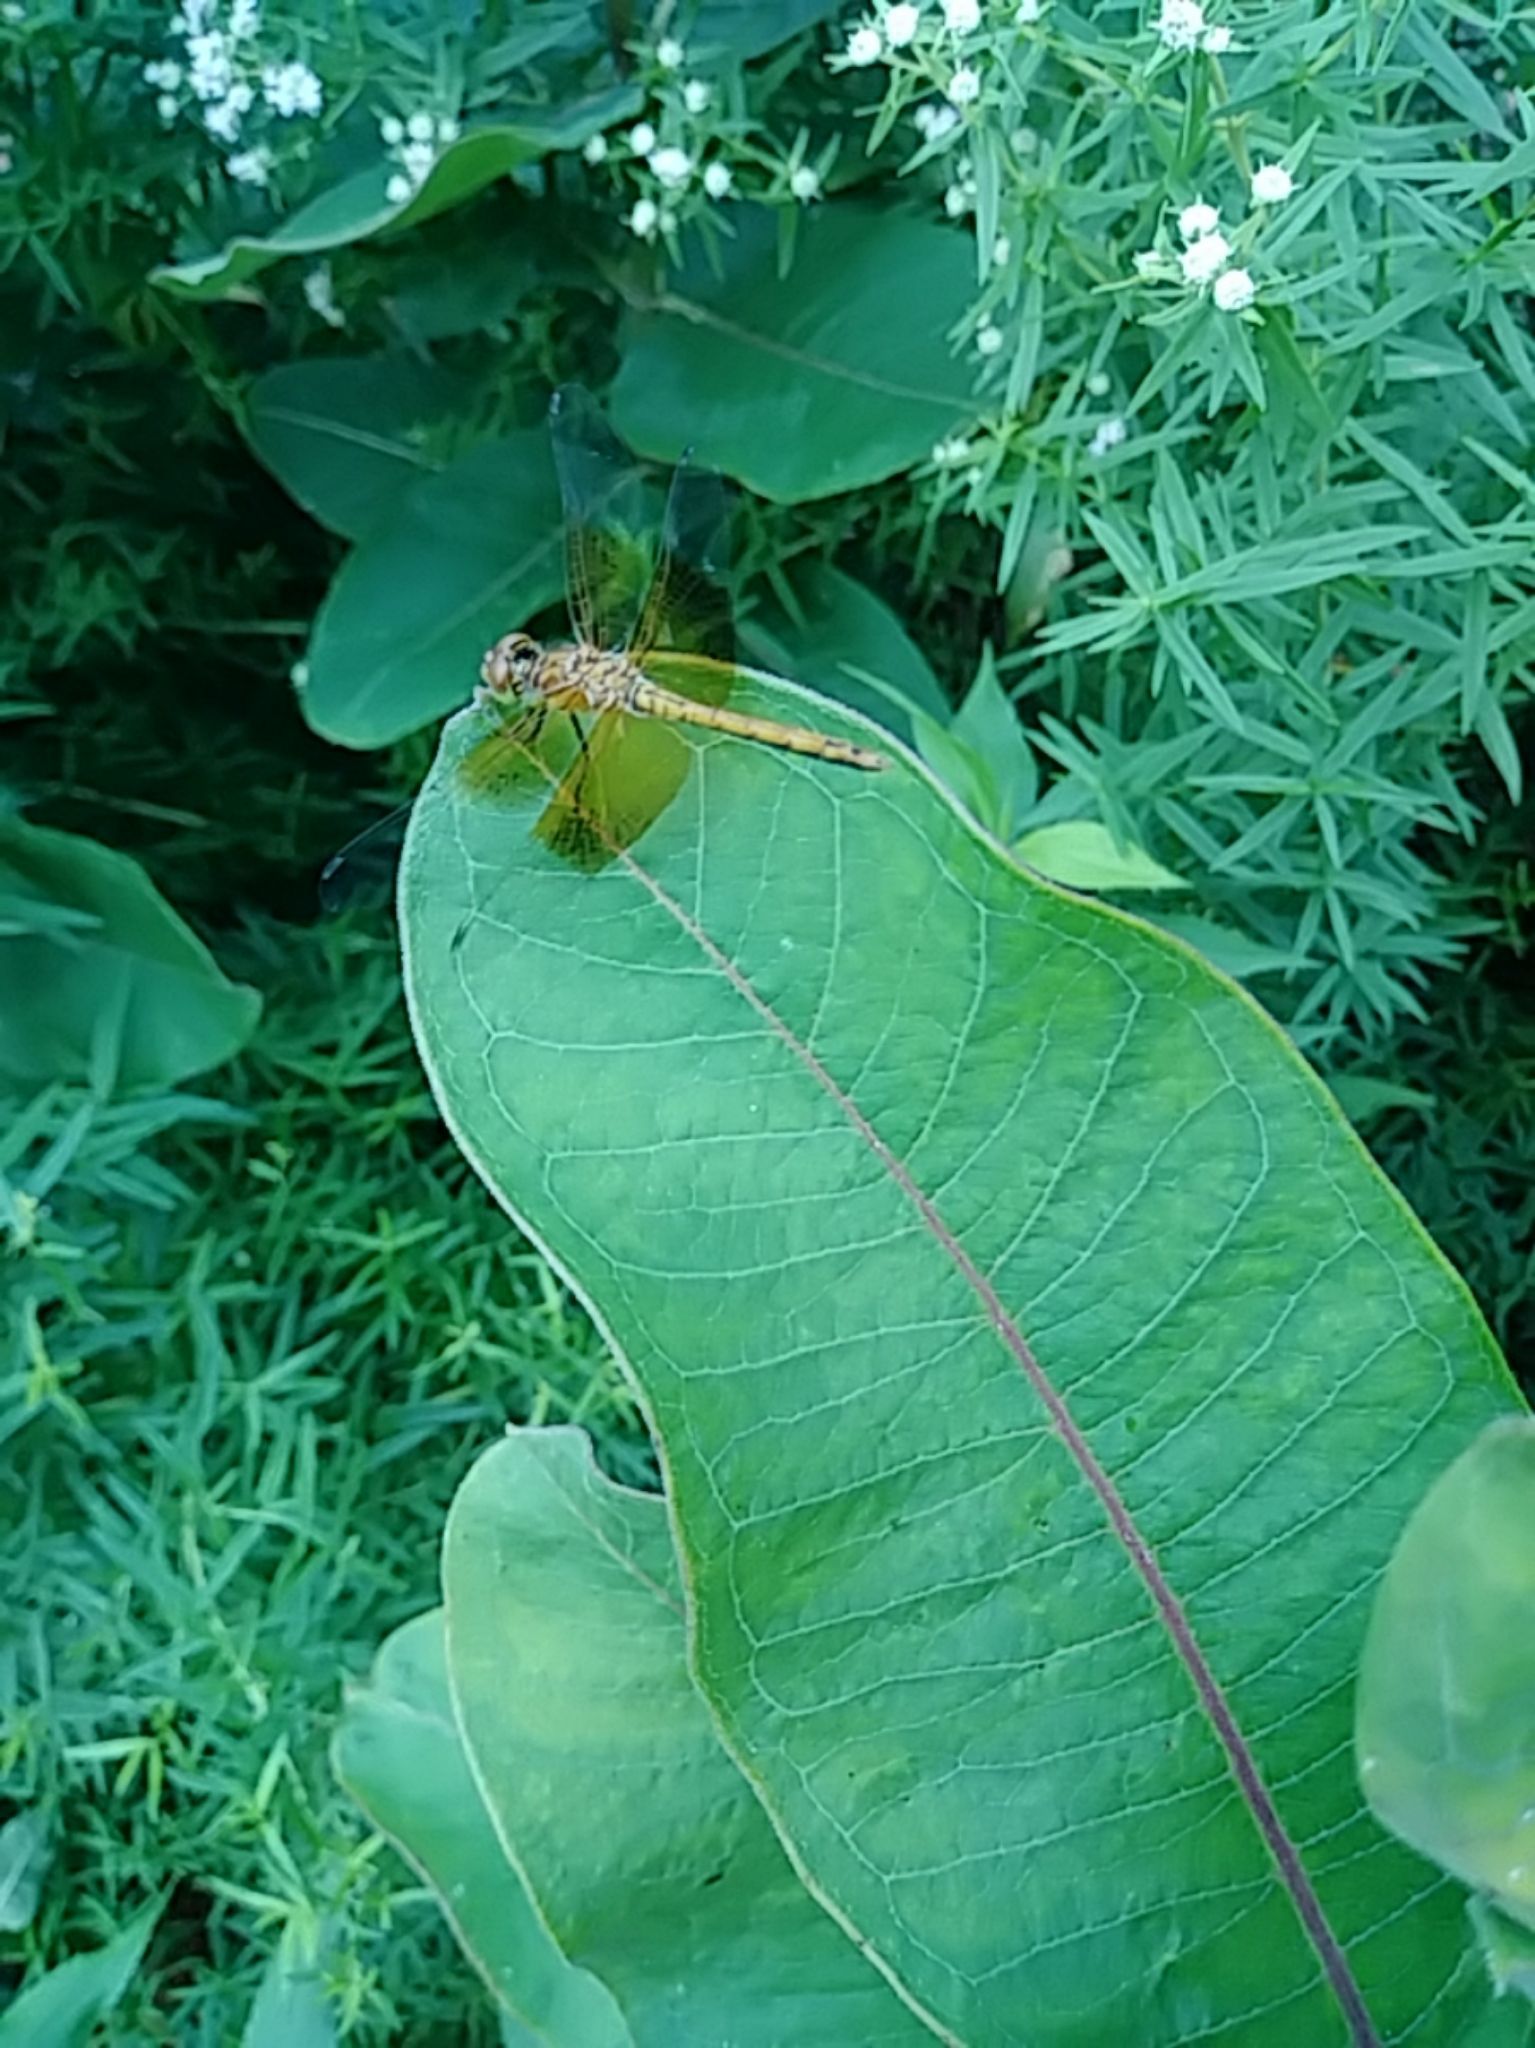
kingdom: Animalia
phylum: Arthropoda
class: Insecta
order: Odonata
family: Libellulidae
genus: Sympetrum
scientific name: Sympetrum semicinctum
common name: Band-winged meadowhawk
